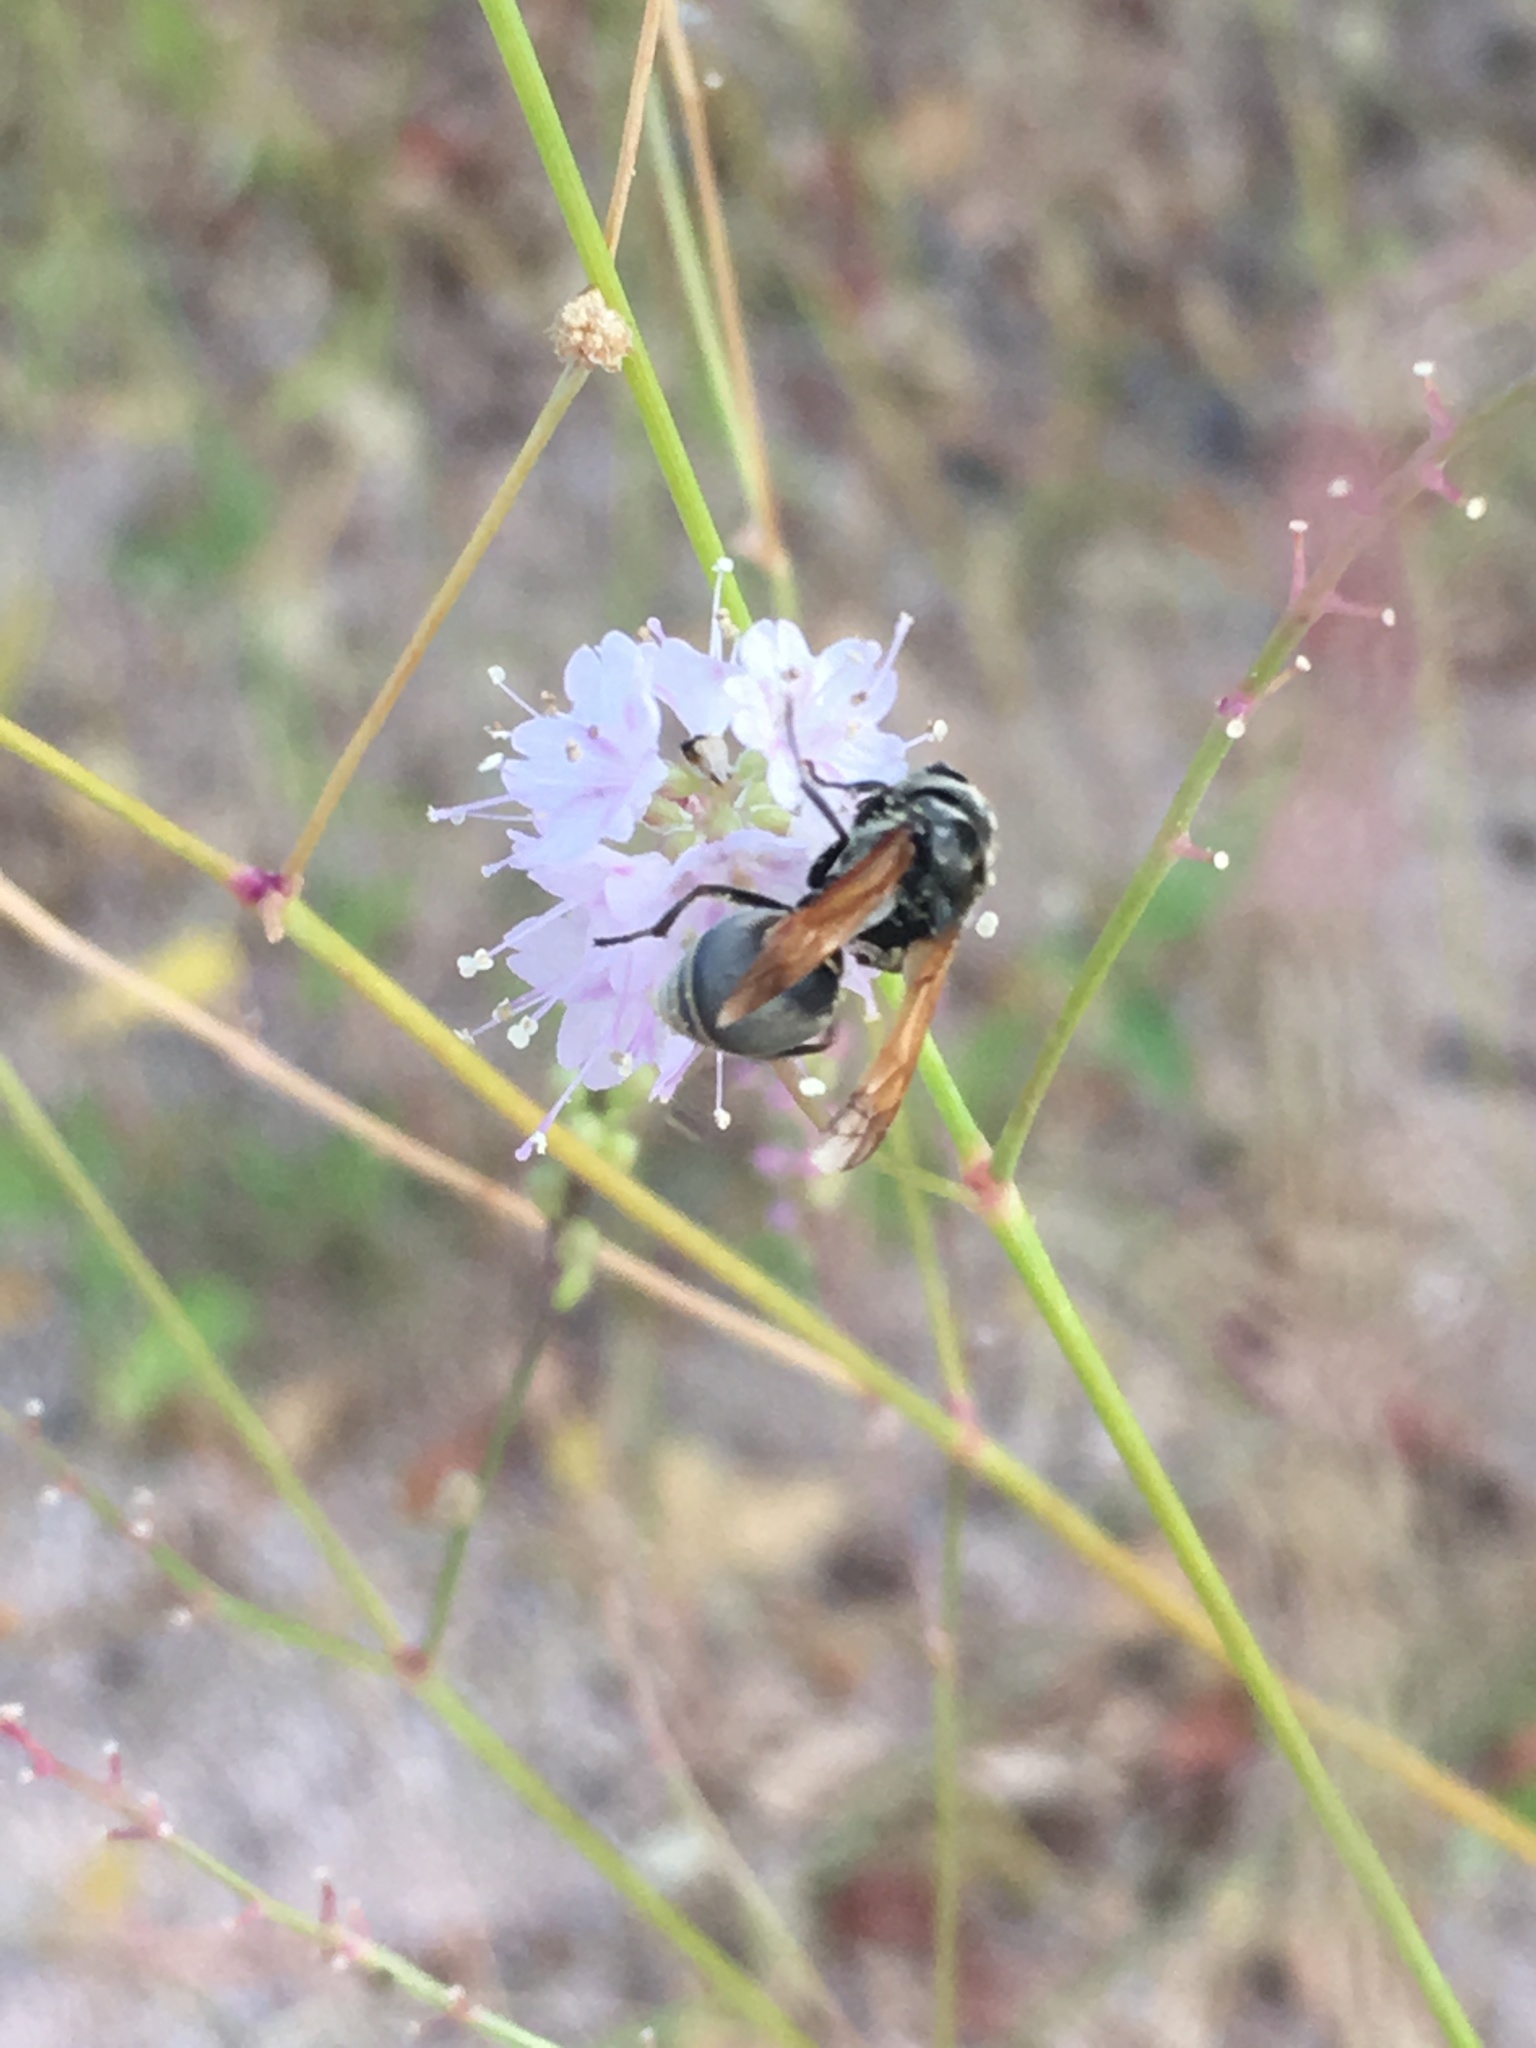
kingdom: Animalia
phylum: Arthropoda
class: Insecta
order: Hymenoptera
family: Vespidae
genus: Brachygastra
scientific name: Brachygastra mellifica
